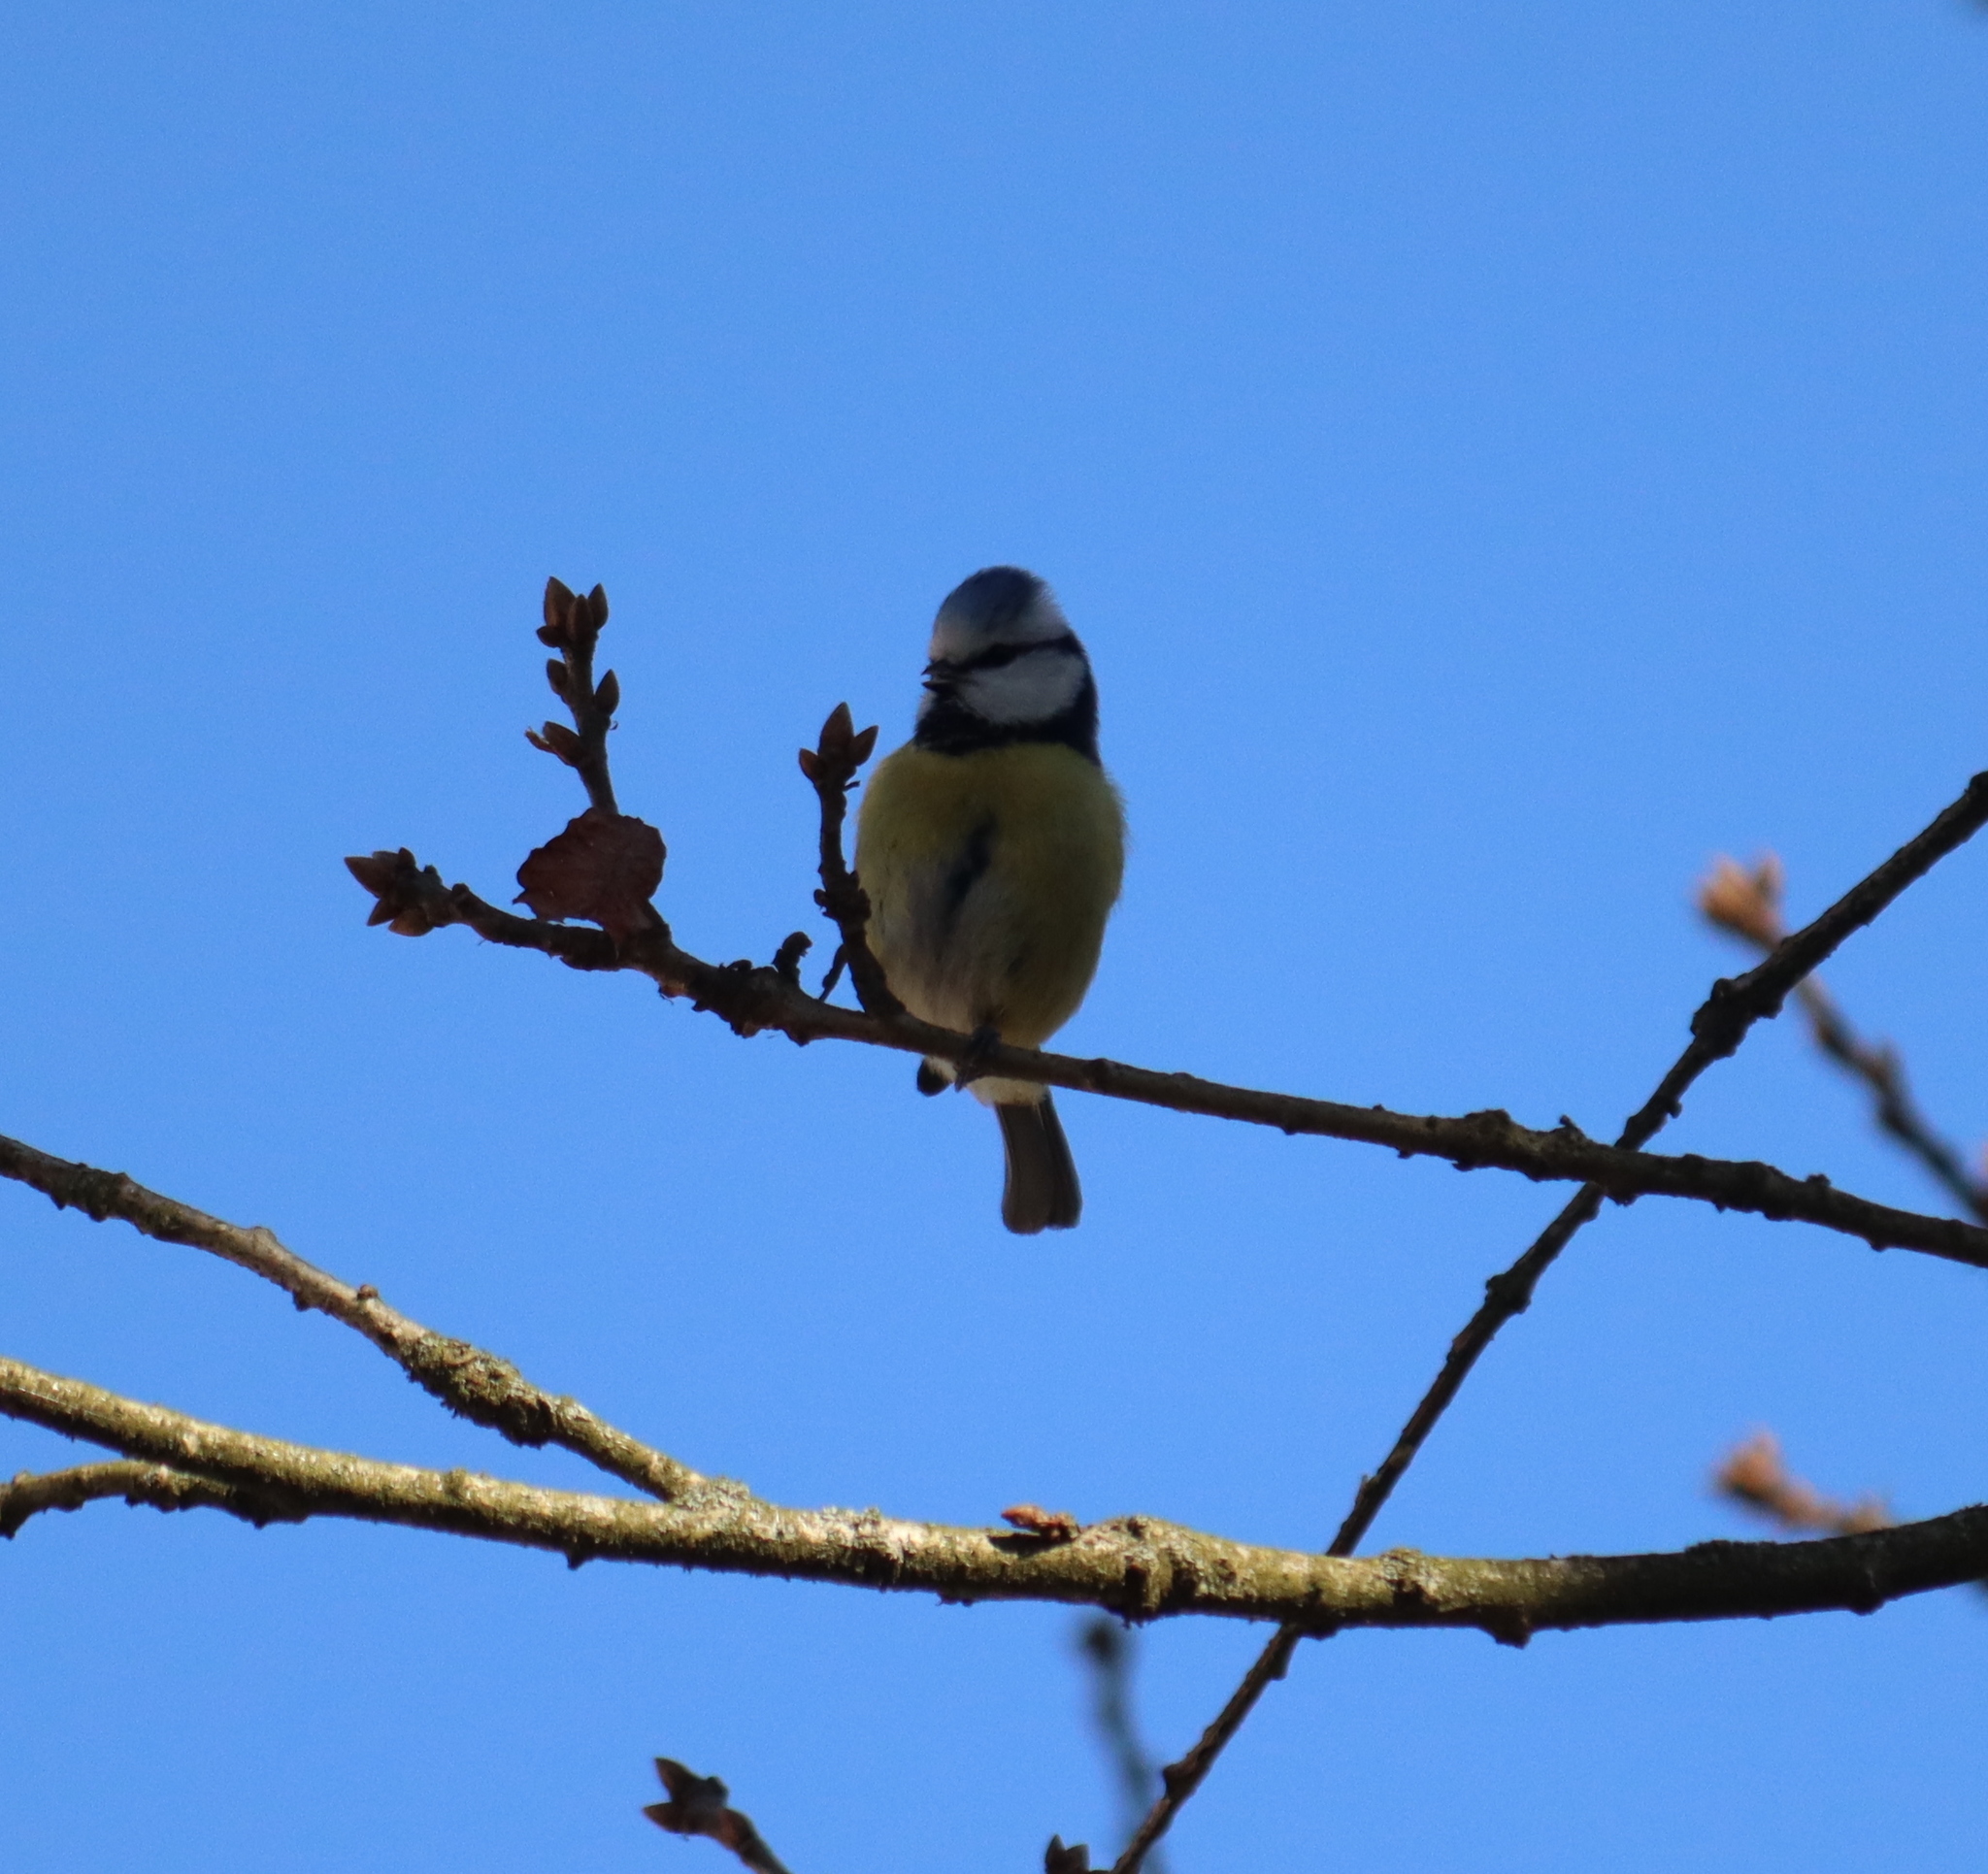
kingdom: Animalia
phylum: Chordata
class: Aves
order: Passeriformes
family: Paridae
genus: Cyanistes
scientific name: Cyanistes caeruleus
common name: Eurasian blue tit
